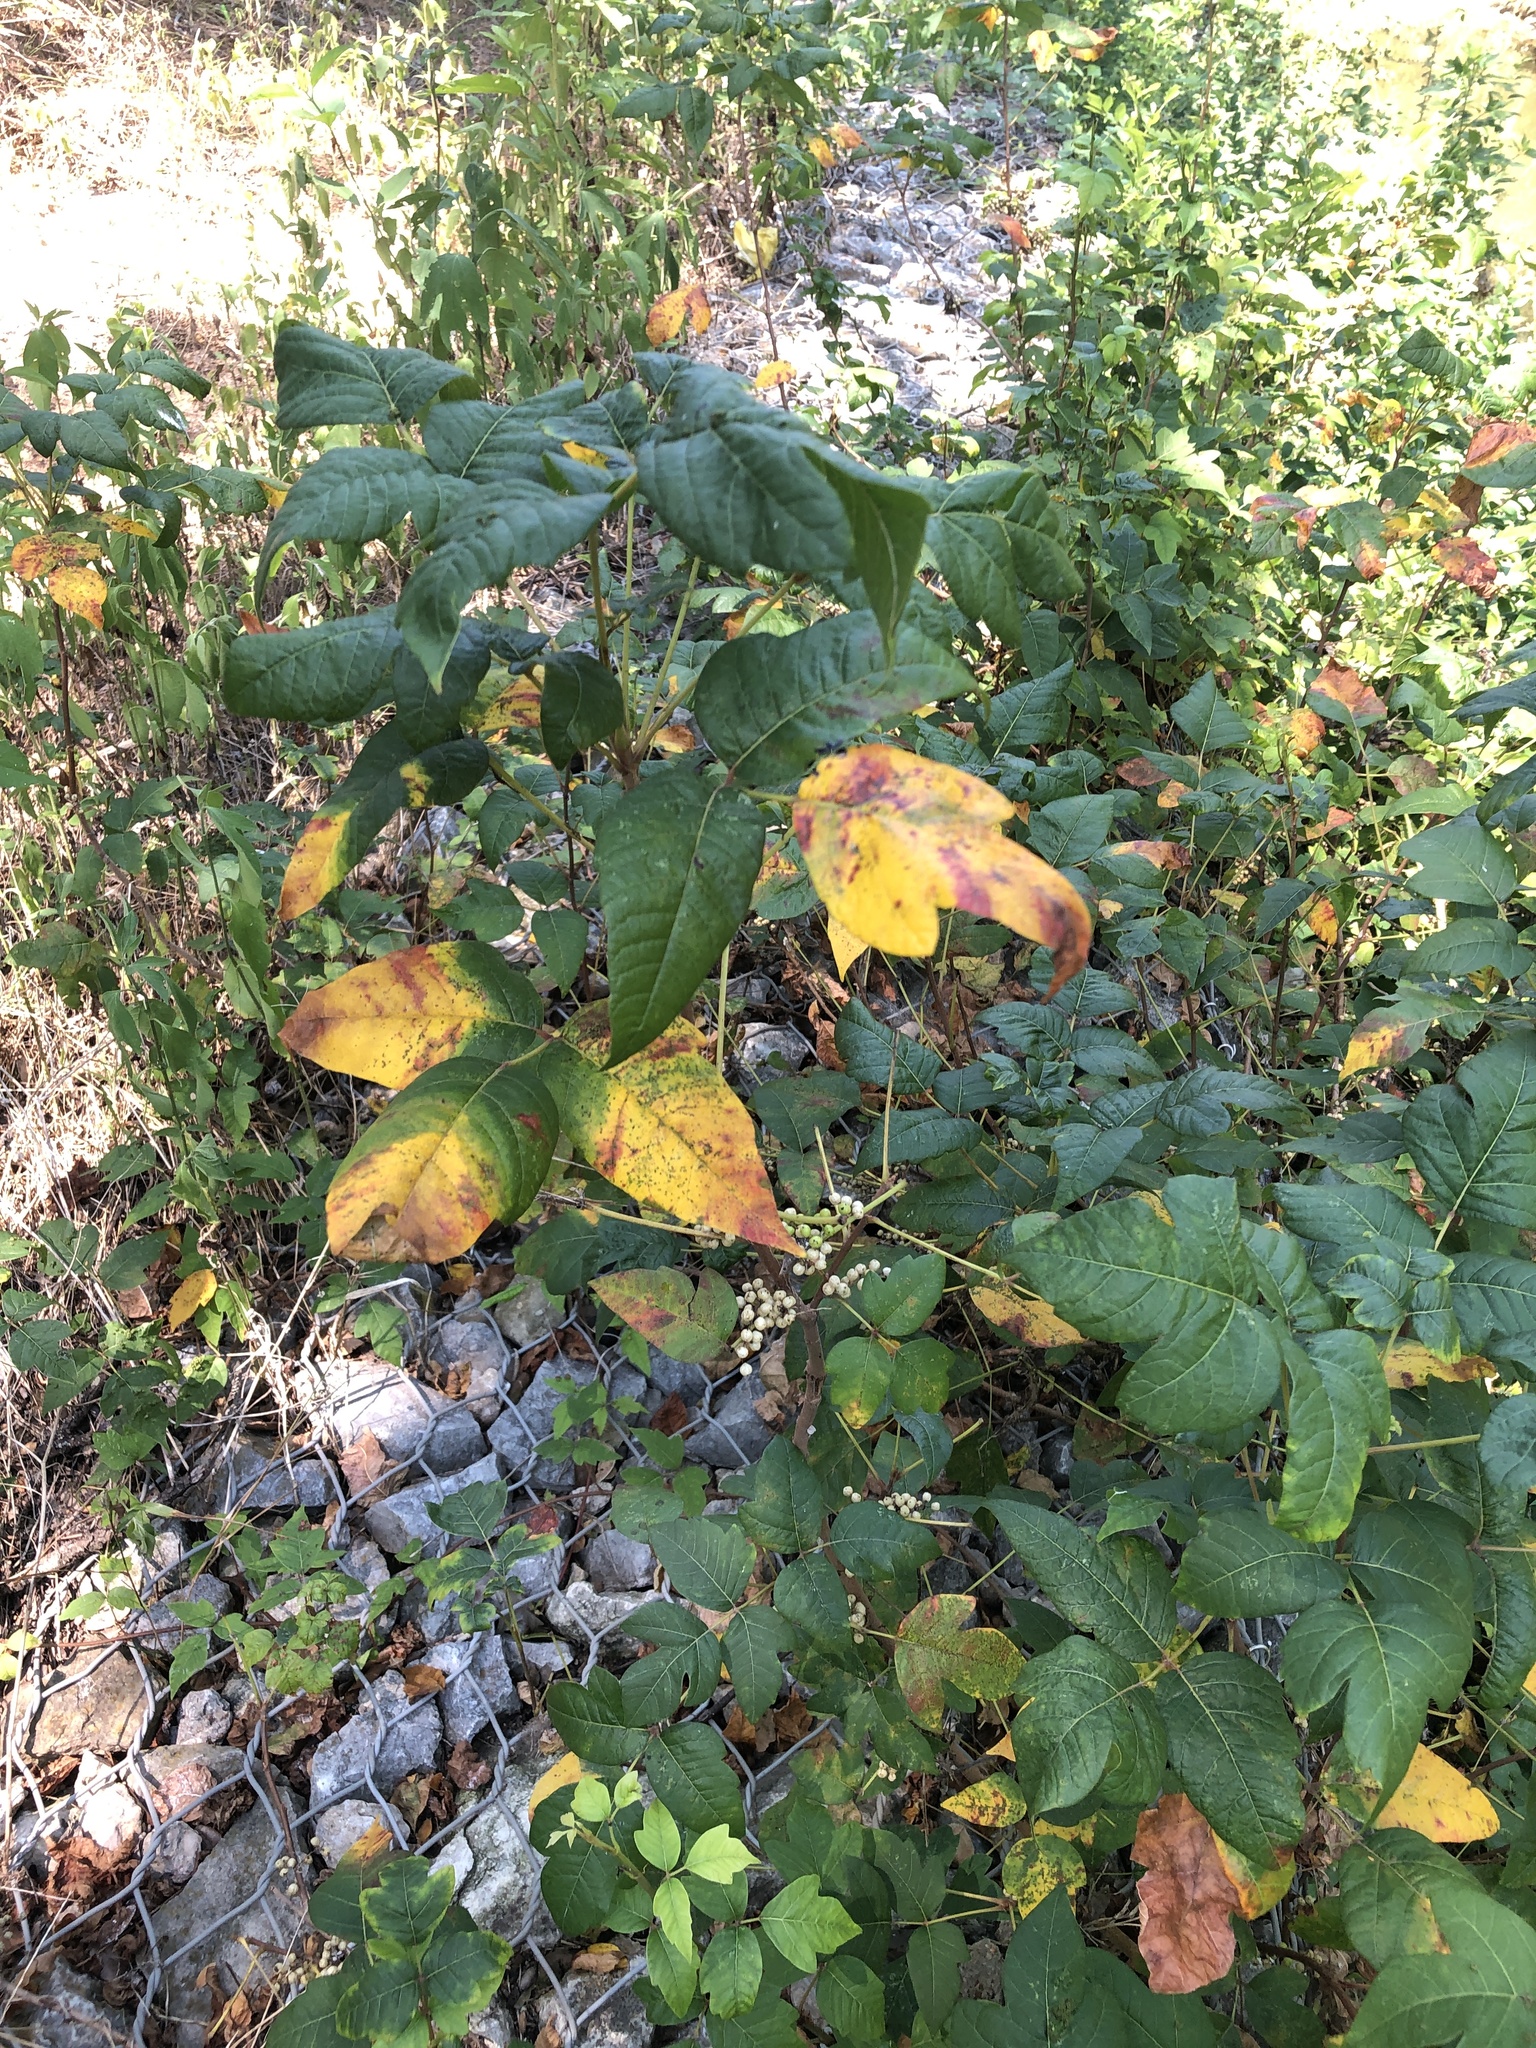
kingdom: Plantae
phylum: Tracheophyta
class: Magnoliopsida
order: Sapindales
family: Anacardiaceae
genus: Toxicodendron
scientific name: Toxicodendron radicans
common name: Poison ivy
